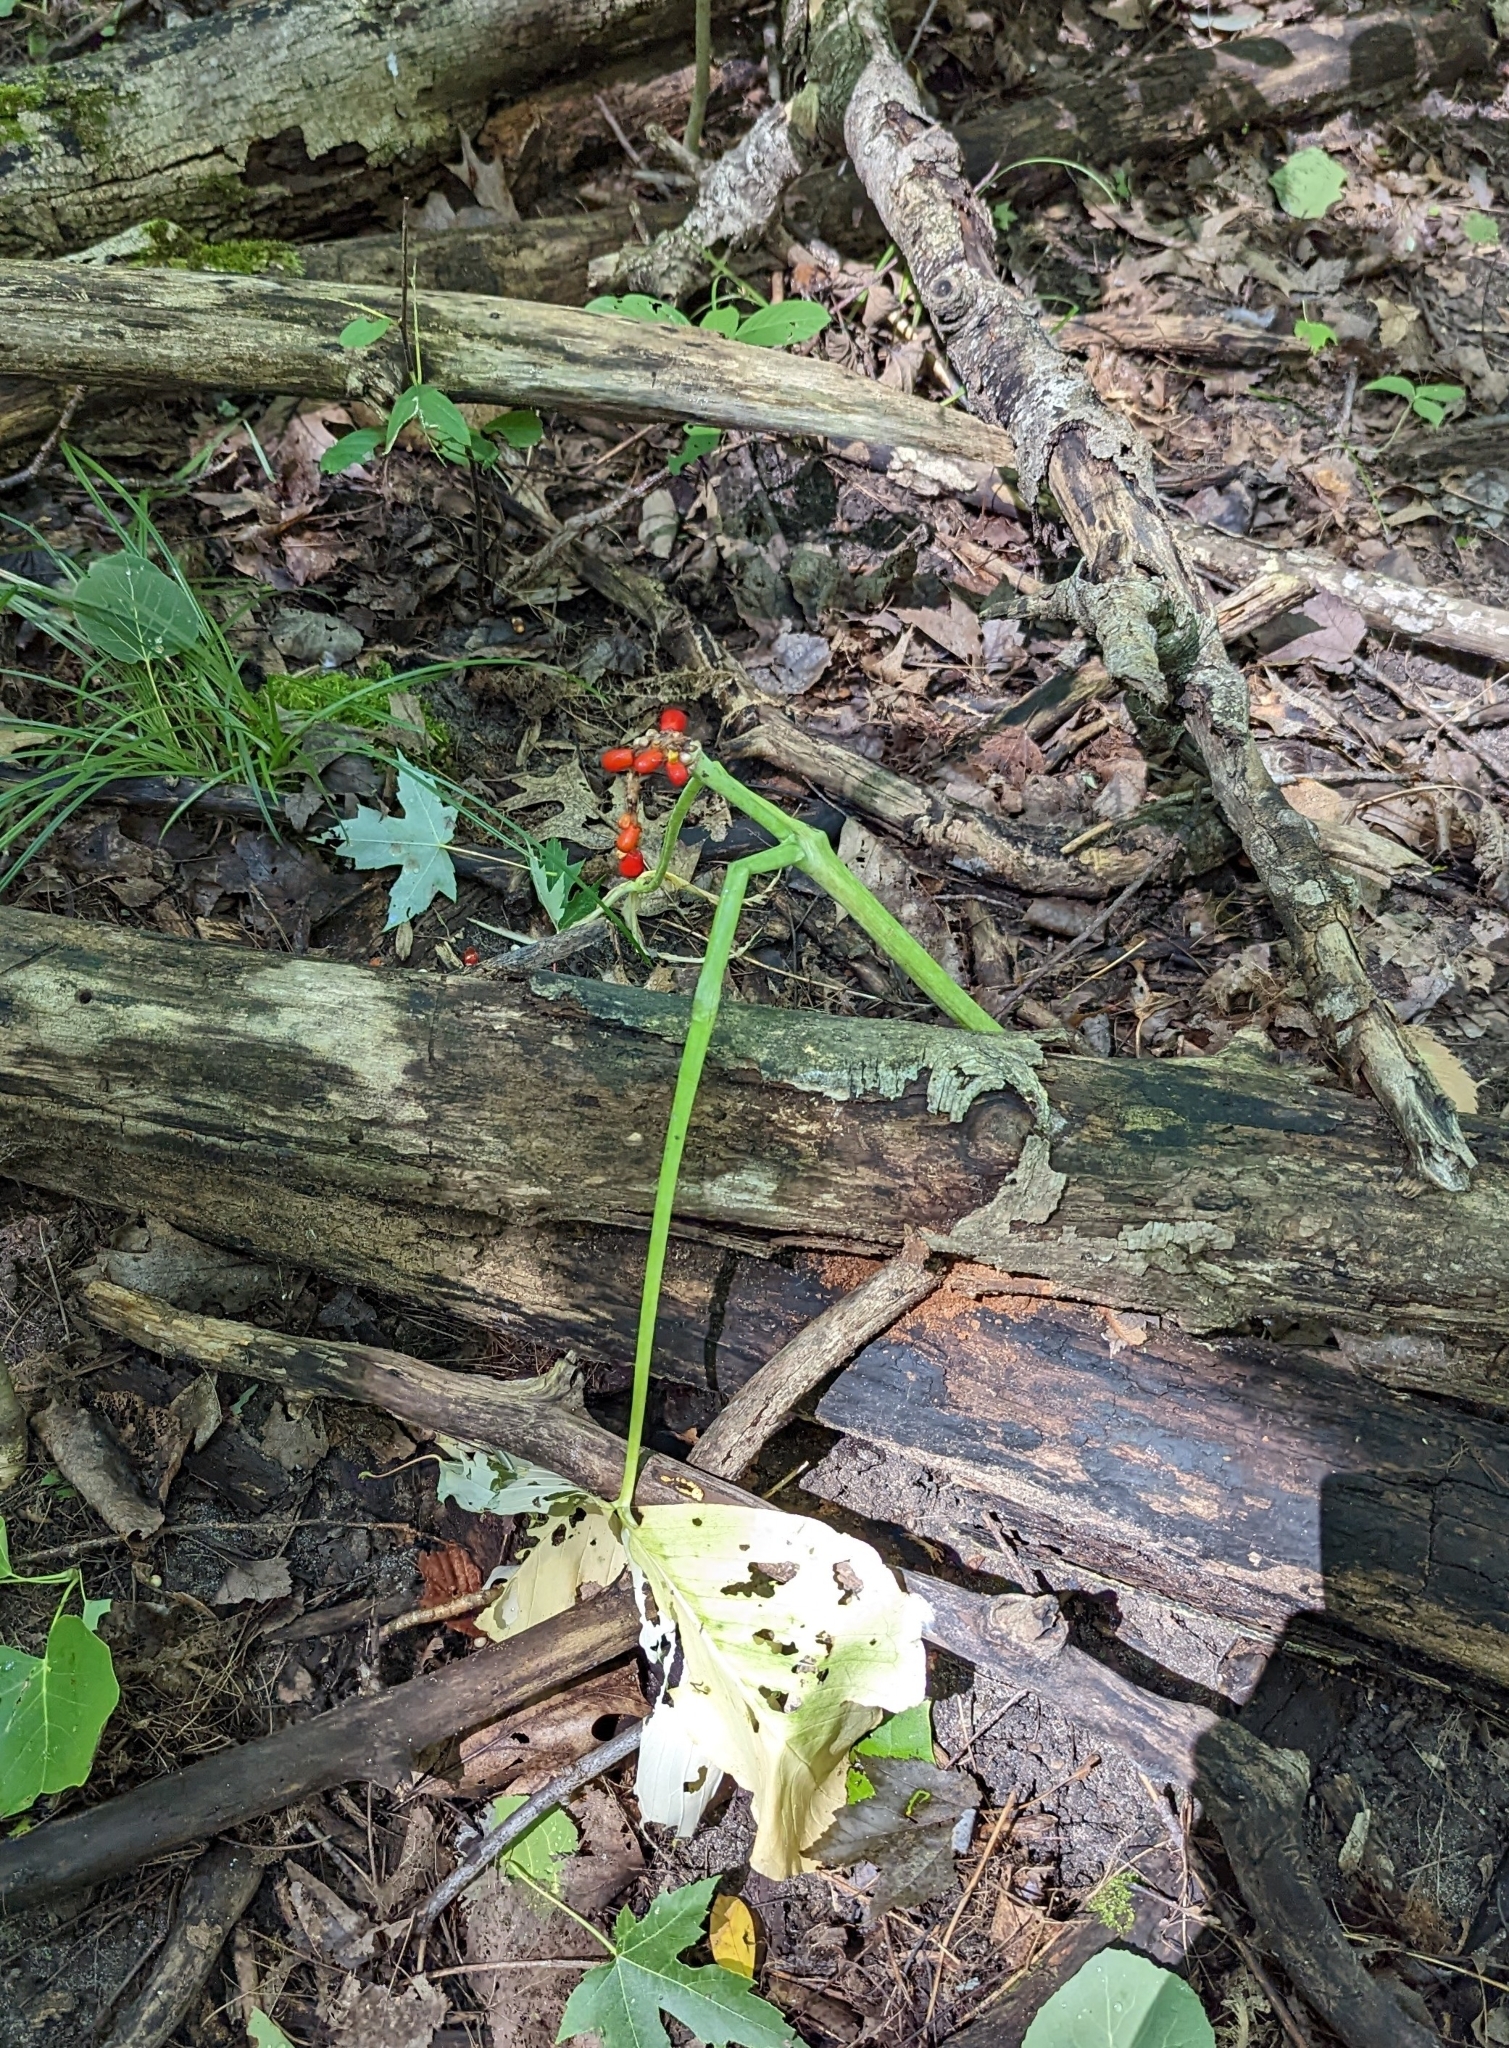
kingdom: Plantae
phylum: Tracheophyta
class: Liliopsida
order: Alismatales
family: Araceae
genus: Arisaema
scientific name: Arisaema triphyllum
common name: Jack-in-the-pulpit
